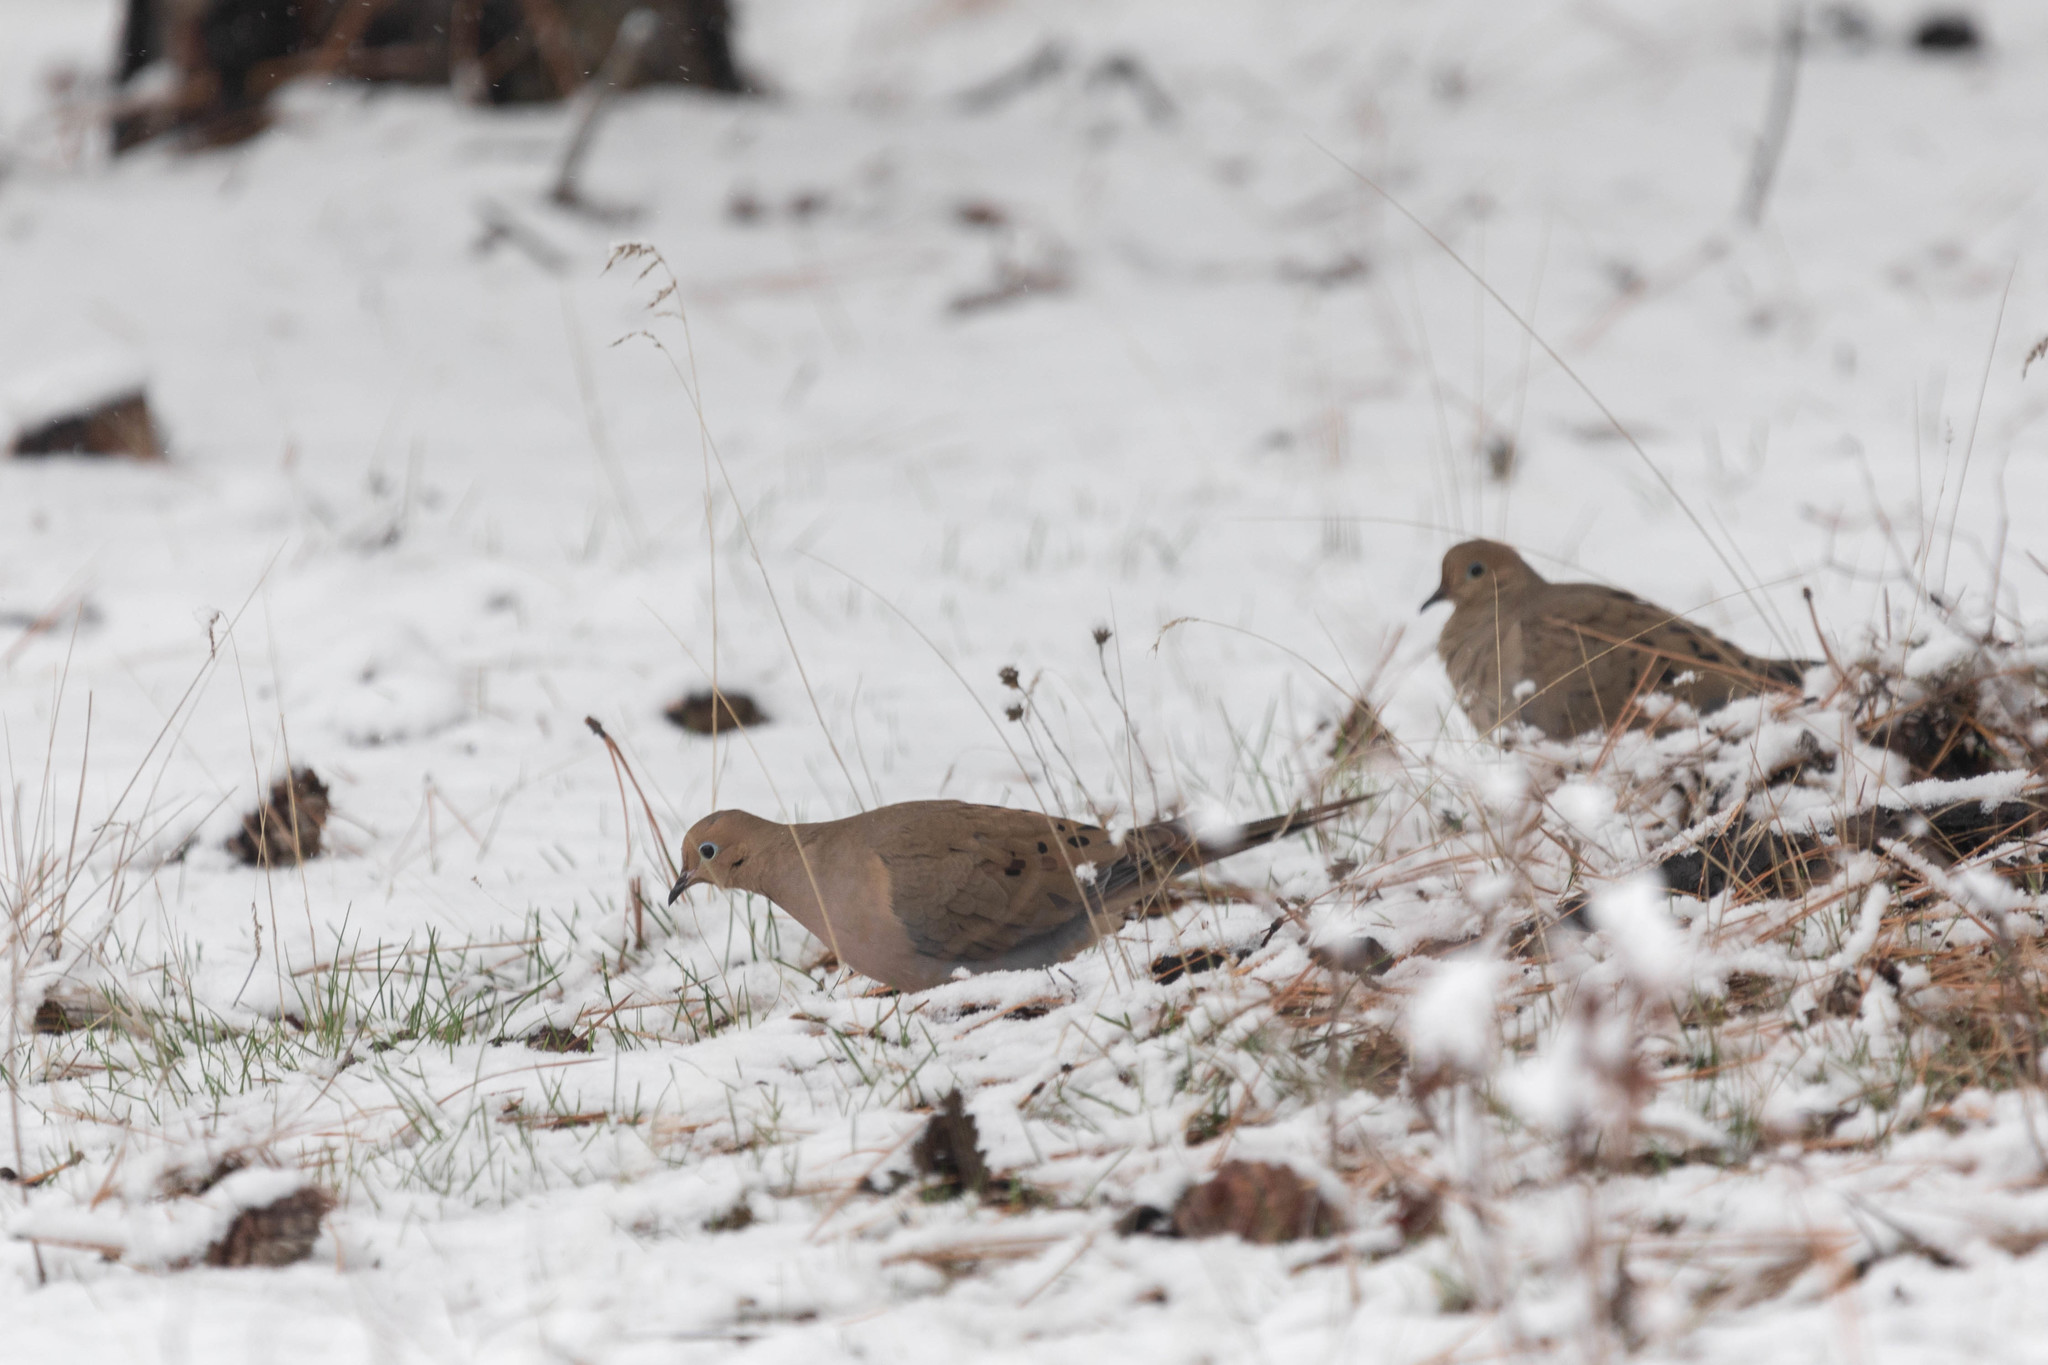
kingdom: Animalia
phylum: Chordata
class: Aves
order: Columbiformes
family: Columbidae
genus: Zenaida
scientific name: Zenaida macroura
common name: Mourning dove
